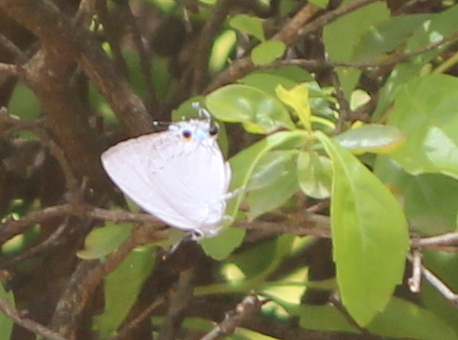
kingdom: Animalia
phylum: Arthropoda
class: Insecta
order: Lepidoptera
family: Lycaenidae
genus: Tajuria
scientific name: Tajuria cippus
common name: Peacock royal
